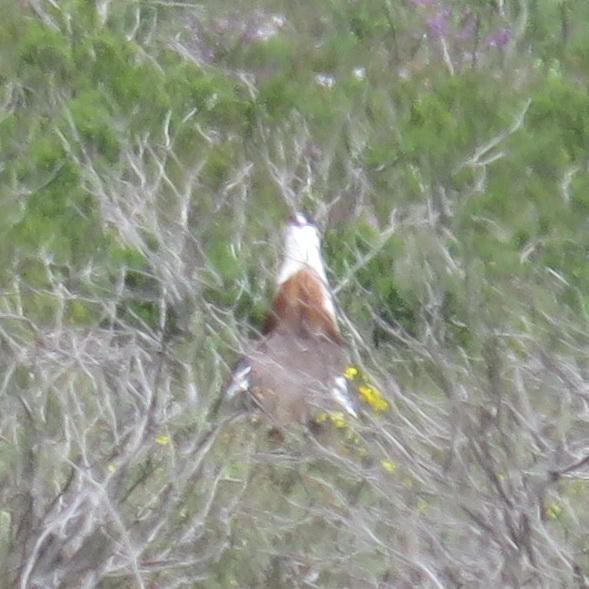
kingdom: Animalia
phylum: Chordata
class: Aves
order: Otidiformes
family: Otididae
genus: Neotis
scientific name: Neotis denhami
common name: Denham's bustard
